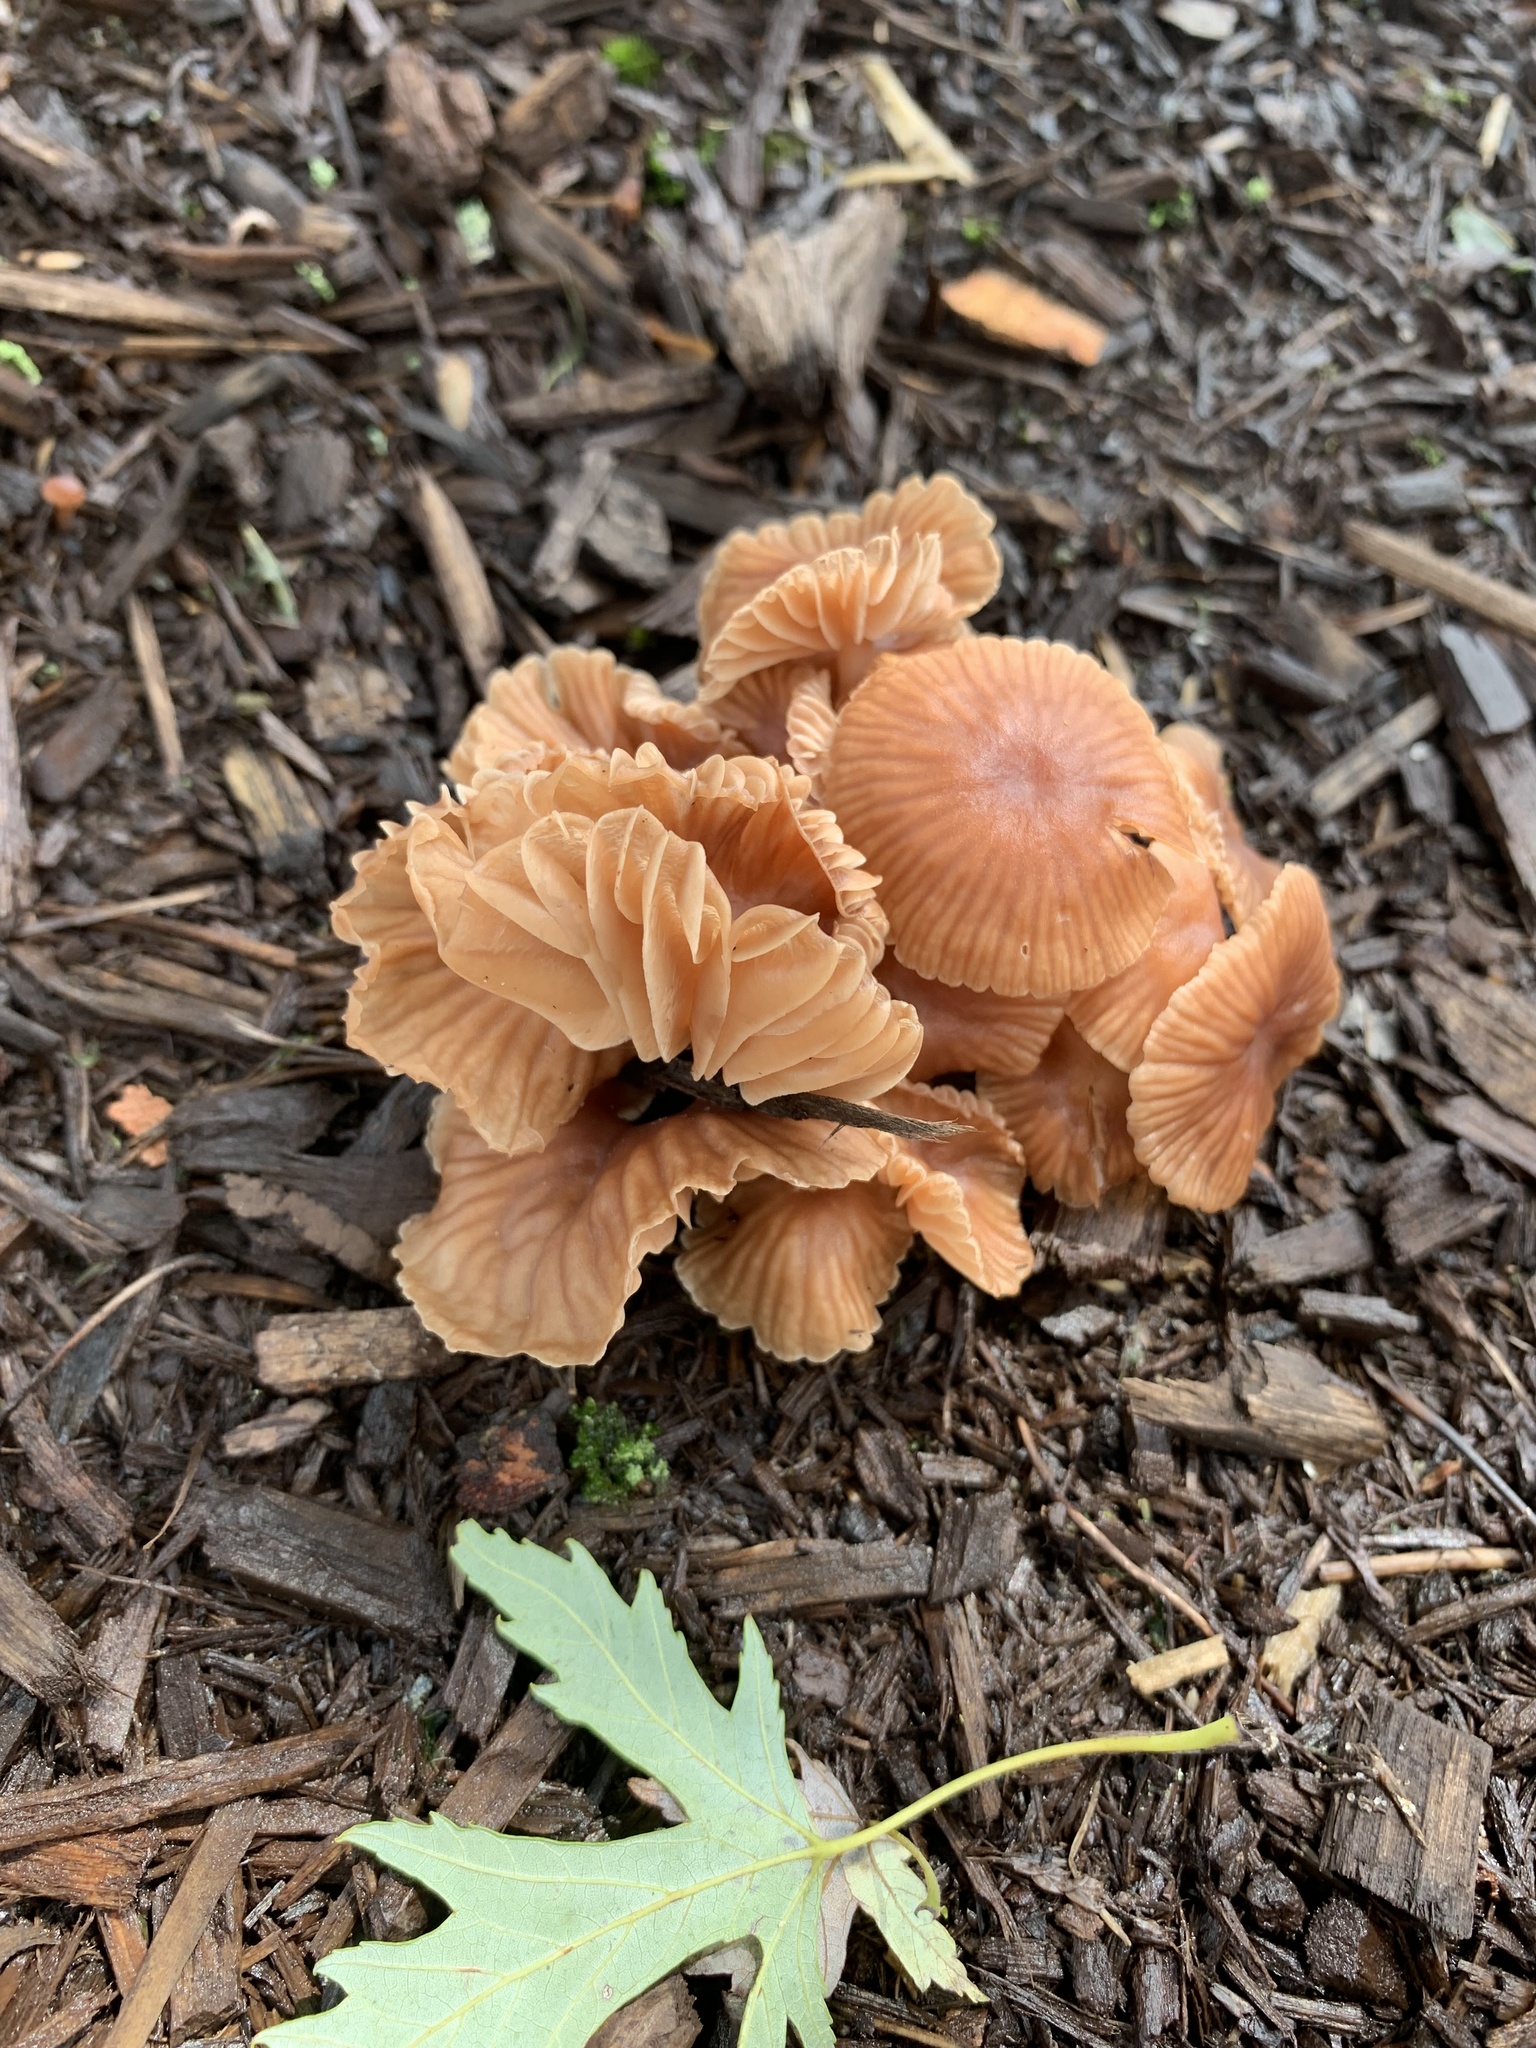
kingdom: Fungi
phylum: Basidiomycota
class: Agaricomycetes
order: Agaricales
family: Hydnangiaceae
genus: Laccaria
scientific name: Laccaria laccata
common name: Deceiver
